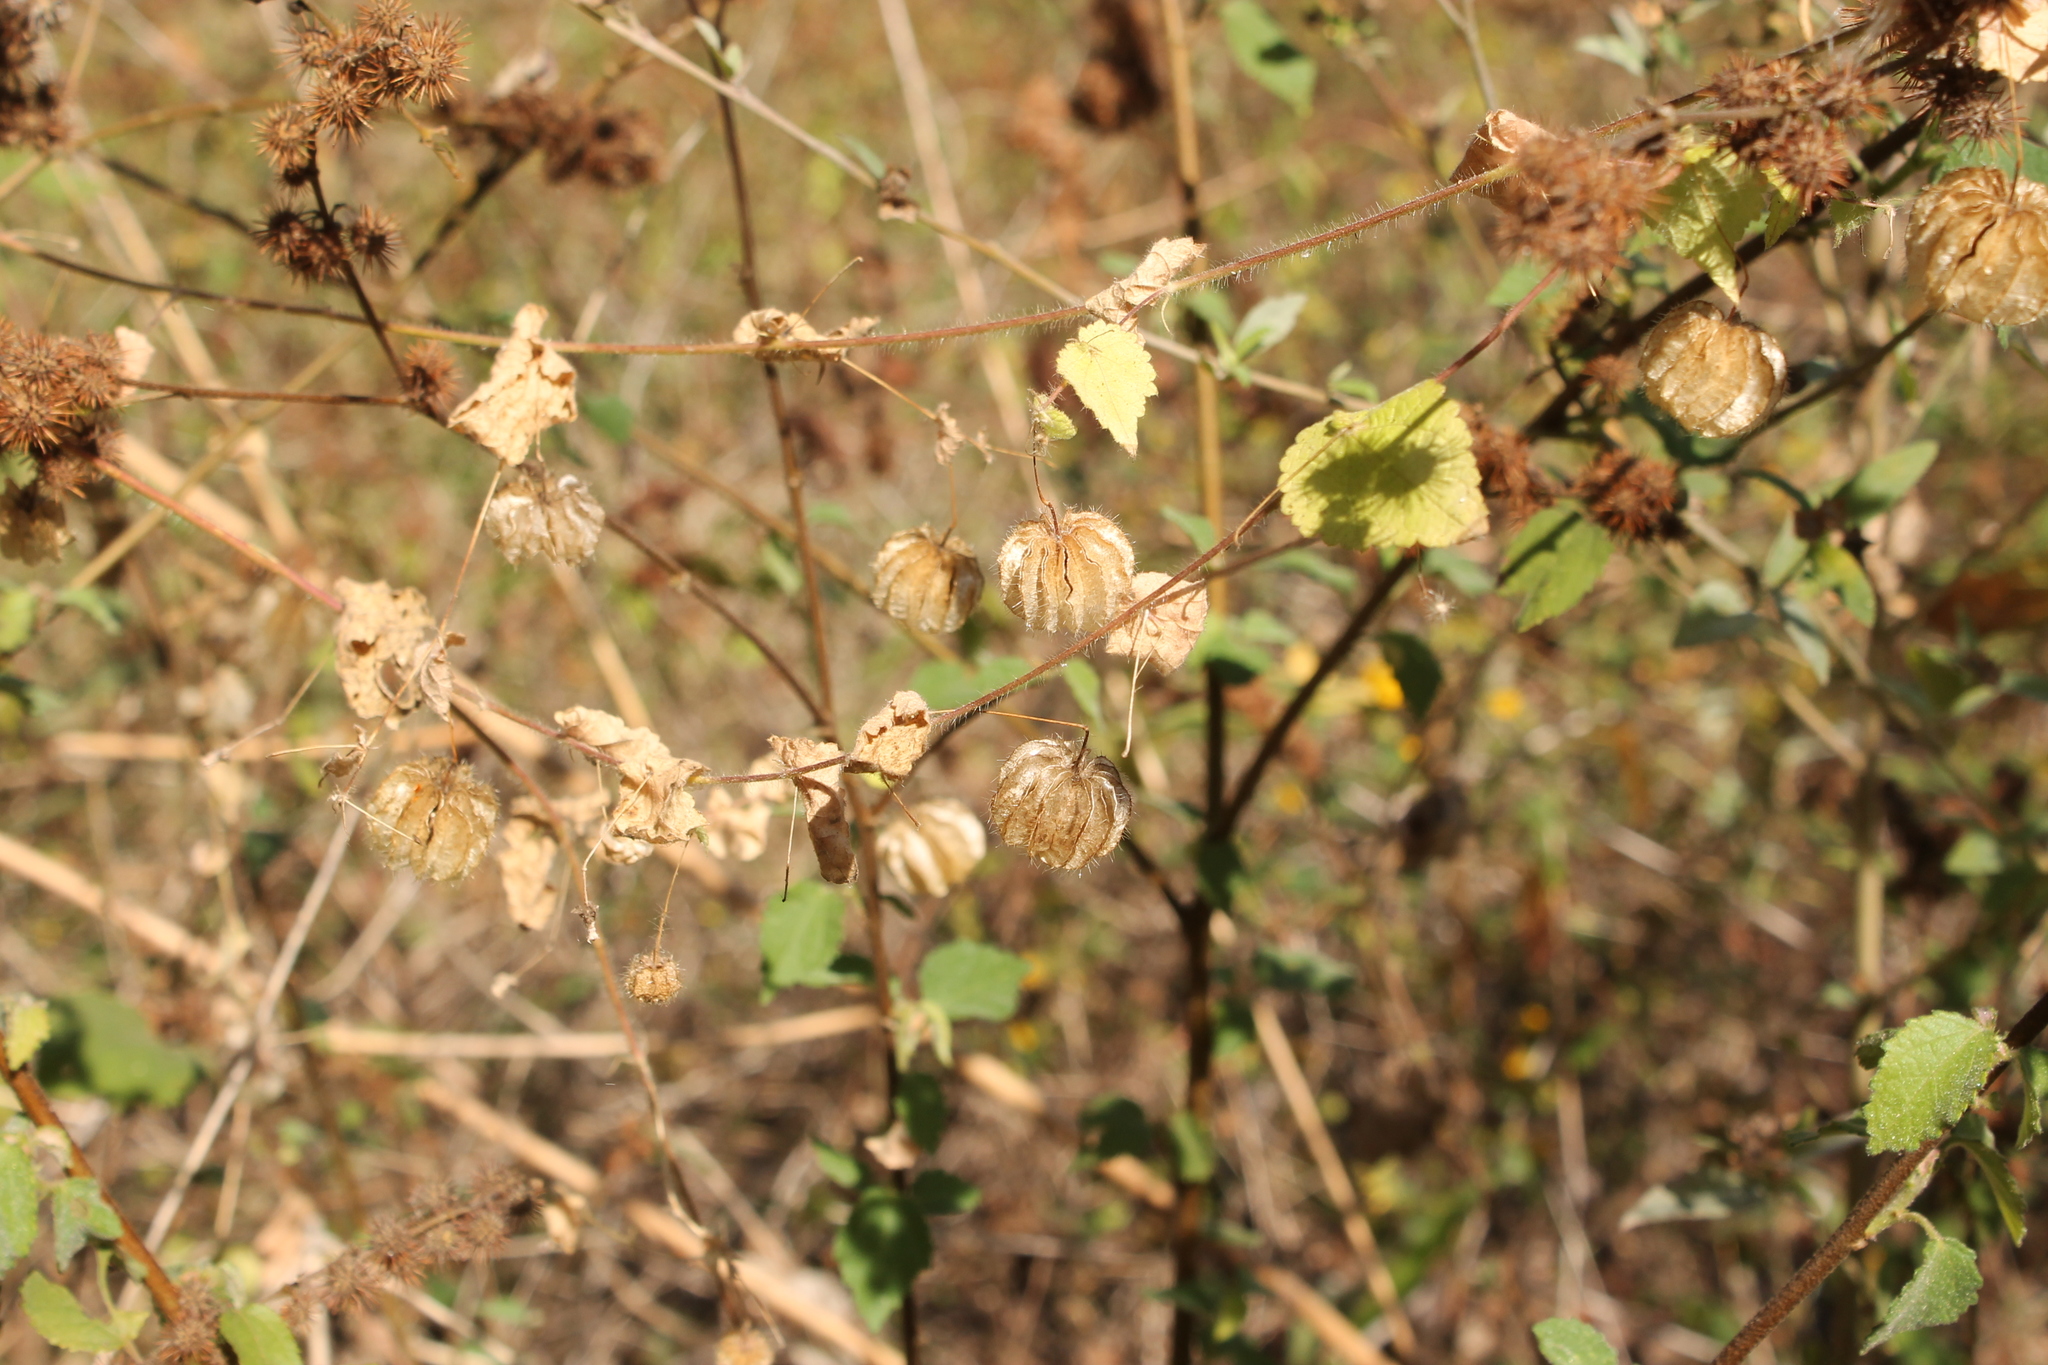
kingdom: Plantae
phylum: Tracheophyta
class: Magnoliopsida
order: Malvales
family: Malvaceae
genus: Herissantia
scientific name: Herissantia crispa
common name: Bladdermallow
